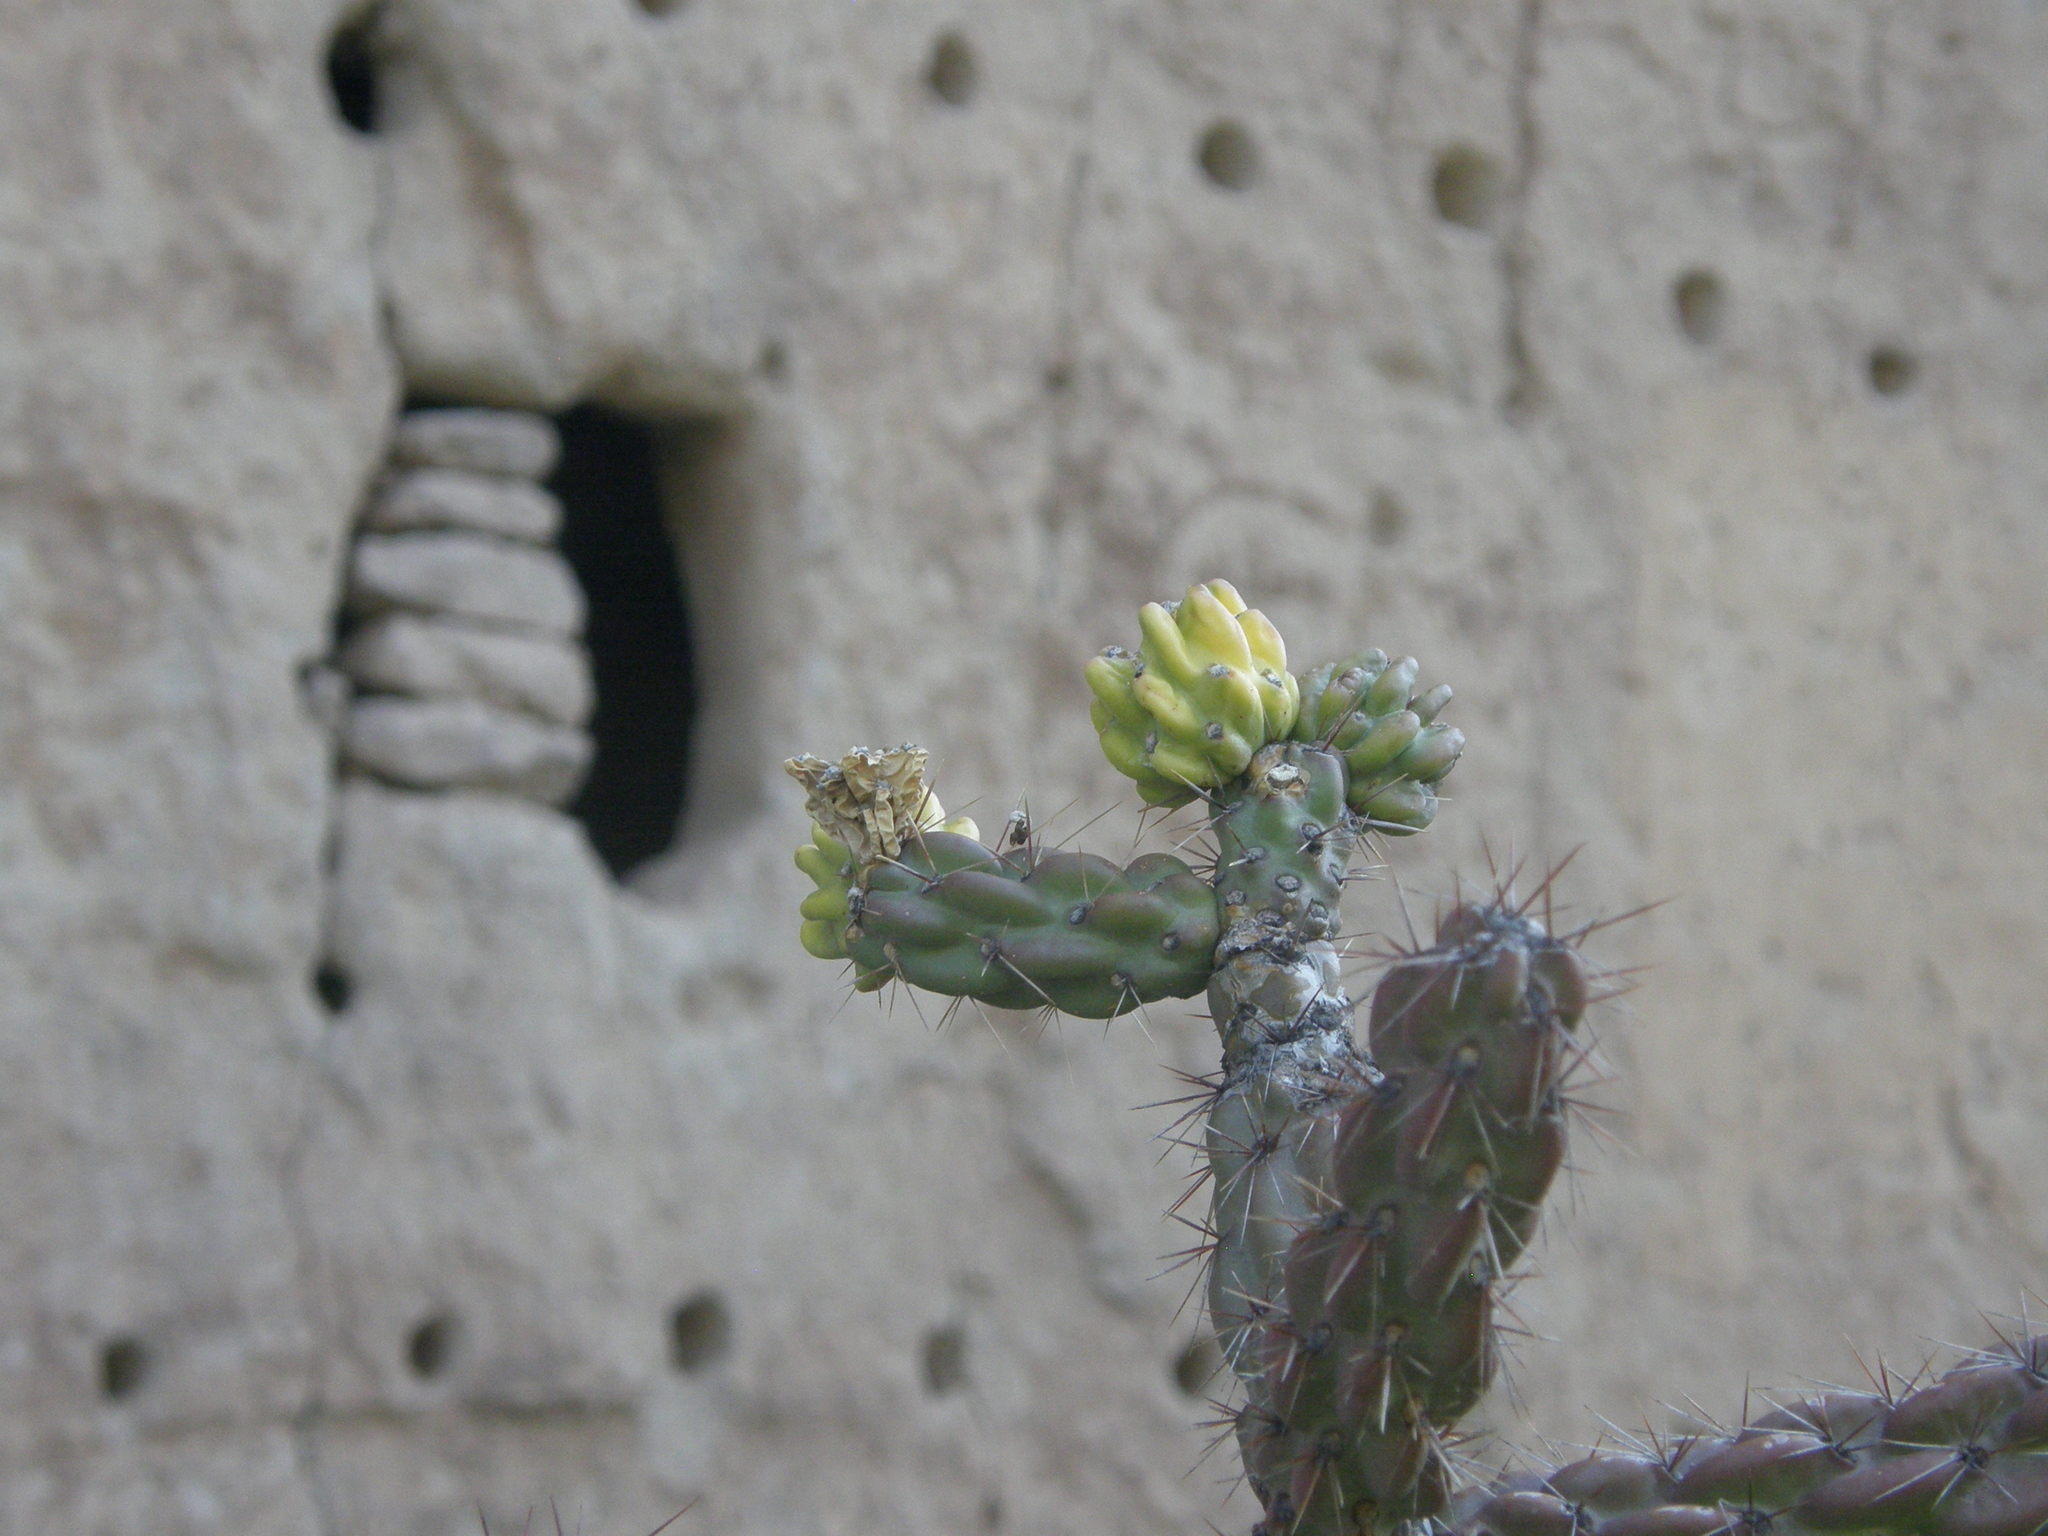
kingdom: Plantae
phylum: Tracheophyta
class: Magnoliopsida
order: Caryophyllales
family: Cactaceae
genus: Cylindropuntia
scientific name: Cylindropuntia imbricata
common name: Candelabrum cactus
